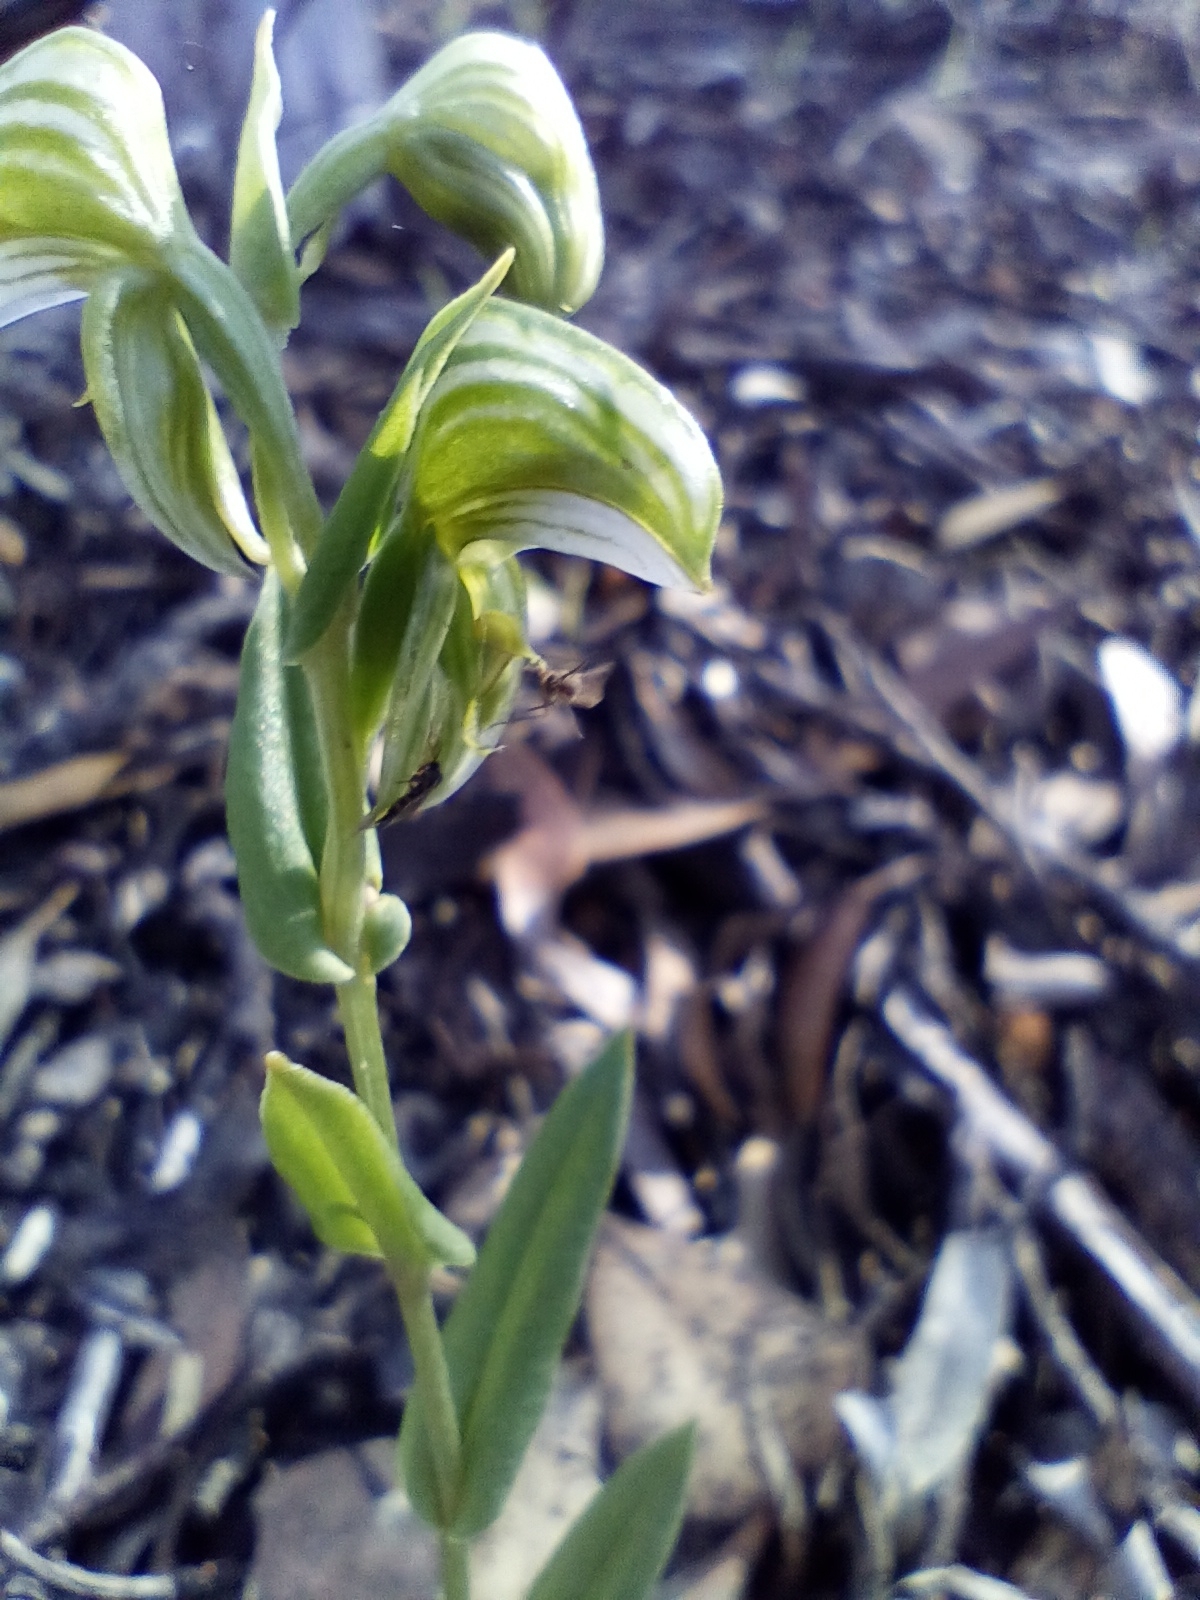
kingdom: Plantae
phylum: Tracheophyta
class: Liliopsida
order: Asparagales
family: Orchidaceae
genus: Pterostylis
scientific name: Pterostylis vittata
